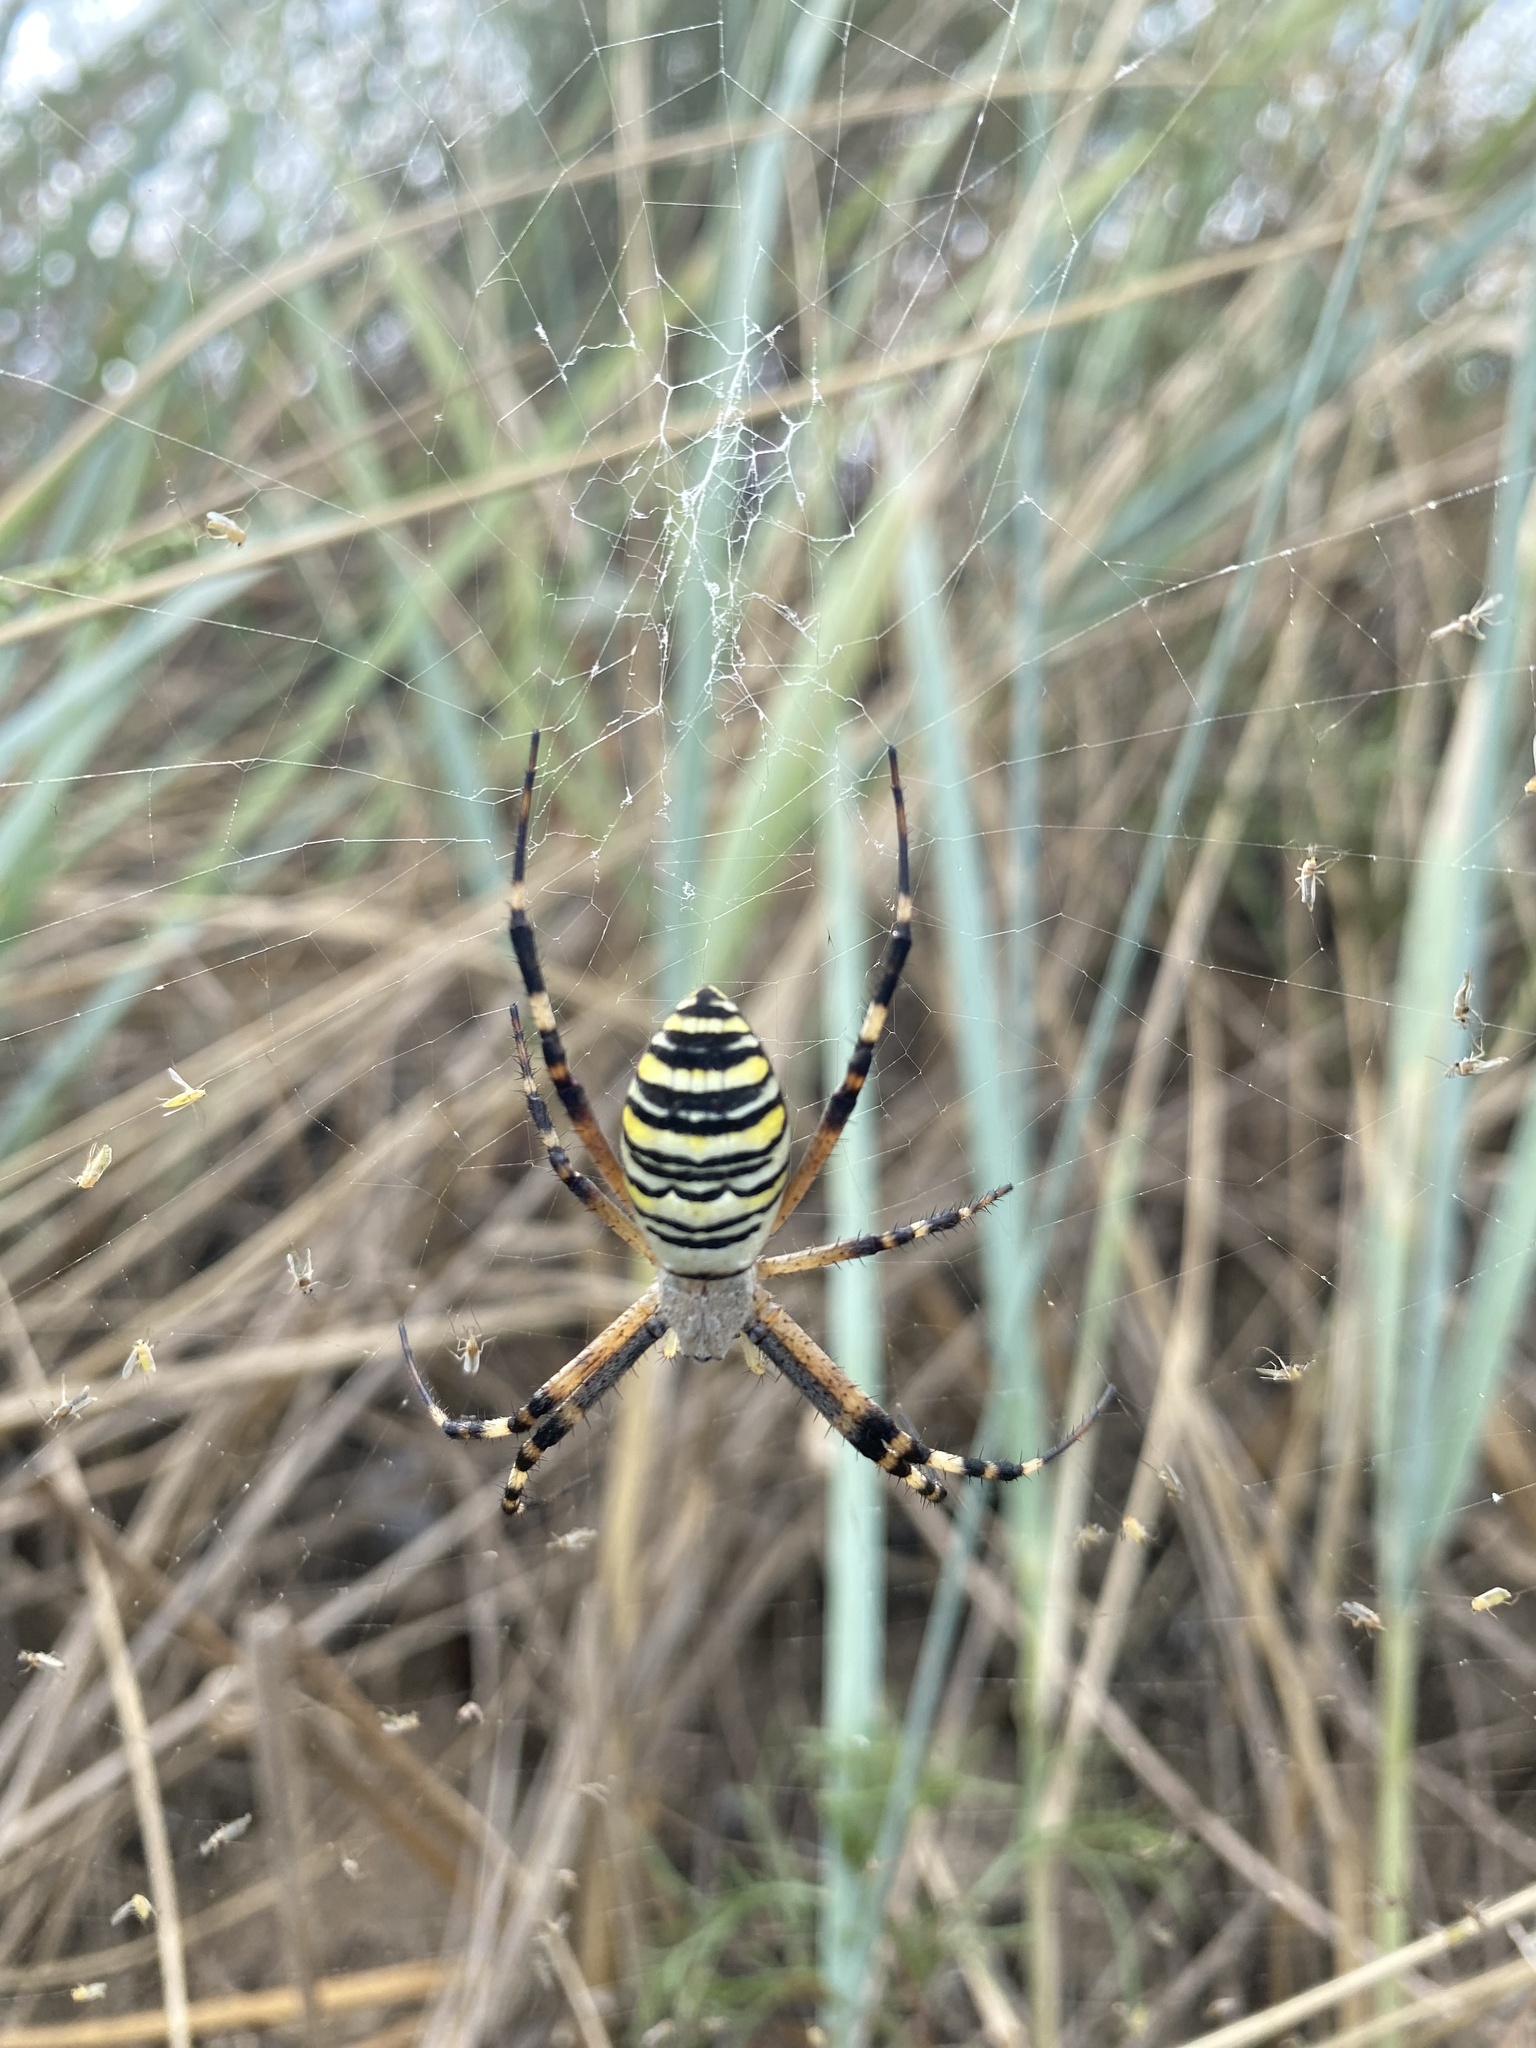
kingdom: Animalia
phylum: Arthropoda
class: Arachnida
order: Araneae
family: Araneidae
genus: Argiope
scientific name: Argiope bruennichi
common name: Wasp spider
